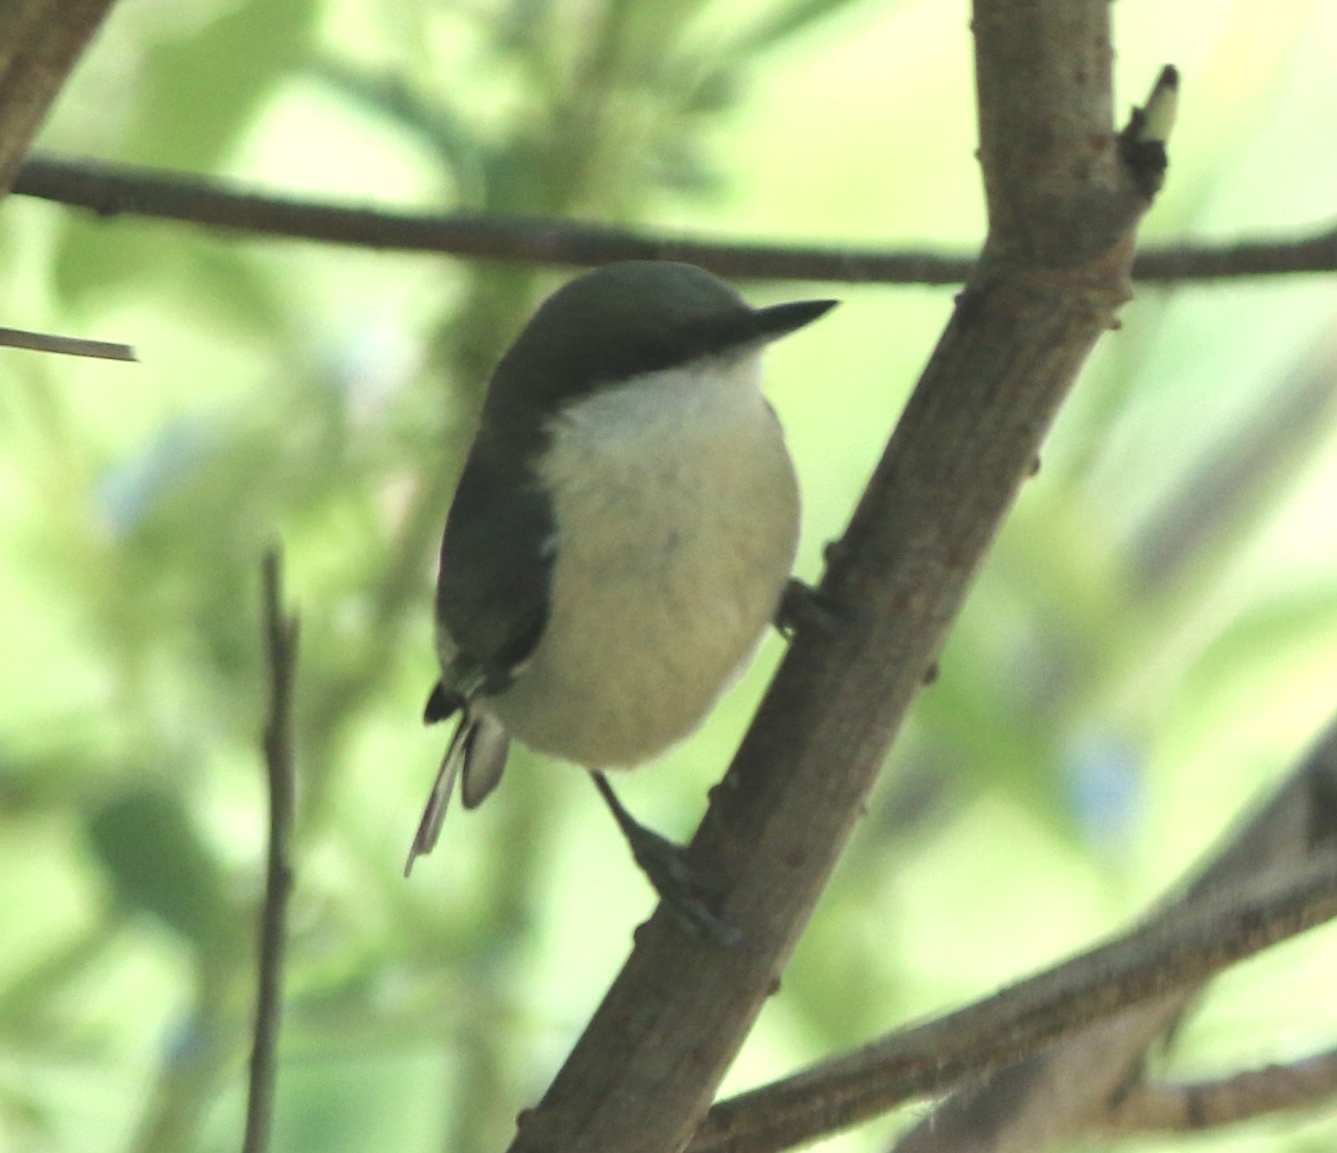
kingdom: Animalia
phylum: Chordata
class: Aves
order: Passeriformes
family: Sittidae
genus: Sitta
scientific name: Sitta pygmaea
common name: Pygmy nuthatch
